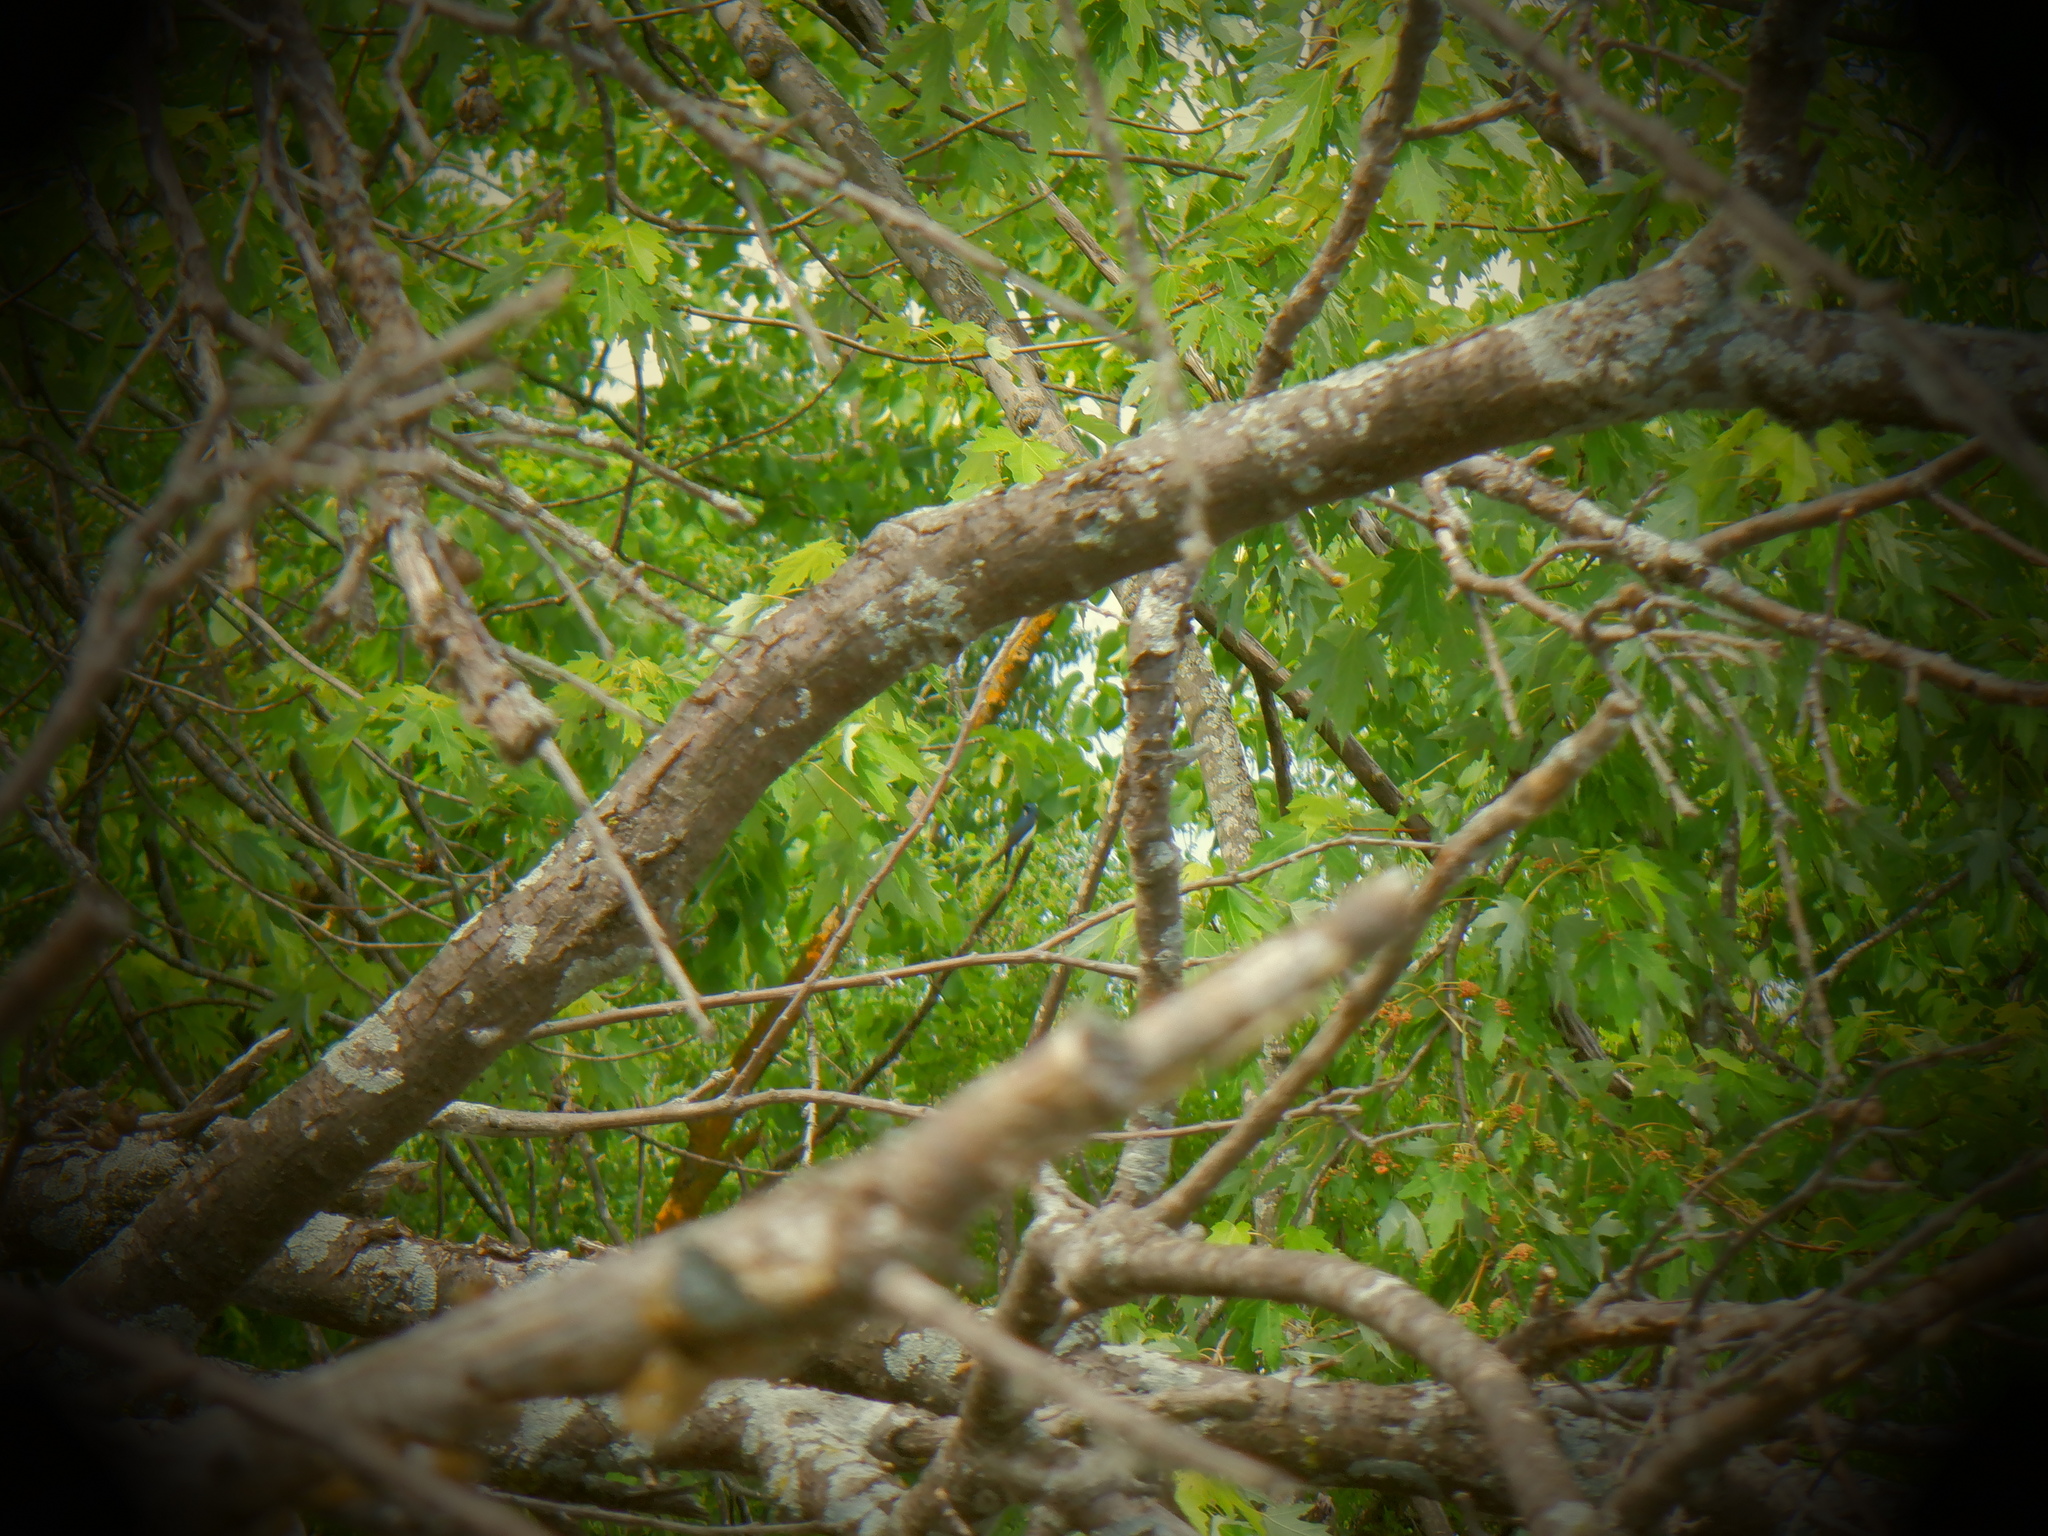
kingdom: Animalia
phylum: Chordata
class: Aves
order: Passeriformes
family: Hirundinidae
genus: Tachycineta
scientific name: Tachycineta bicolor
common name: Tree swallow
